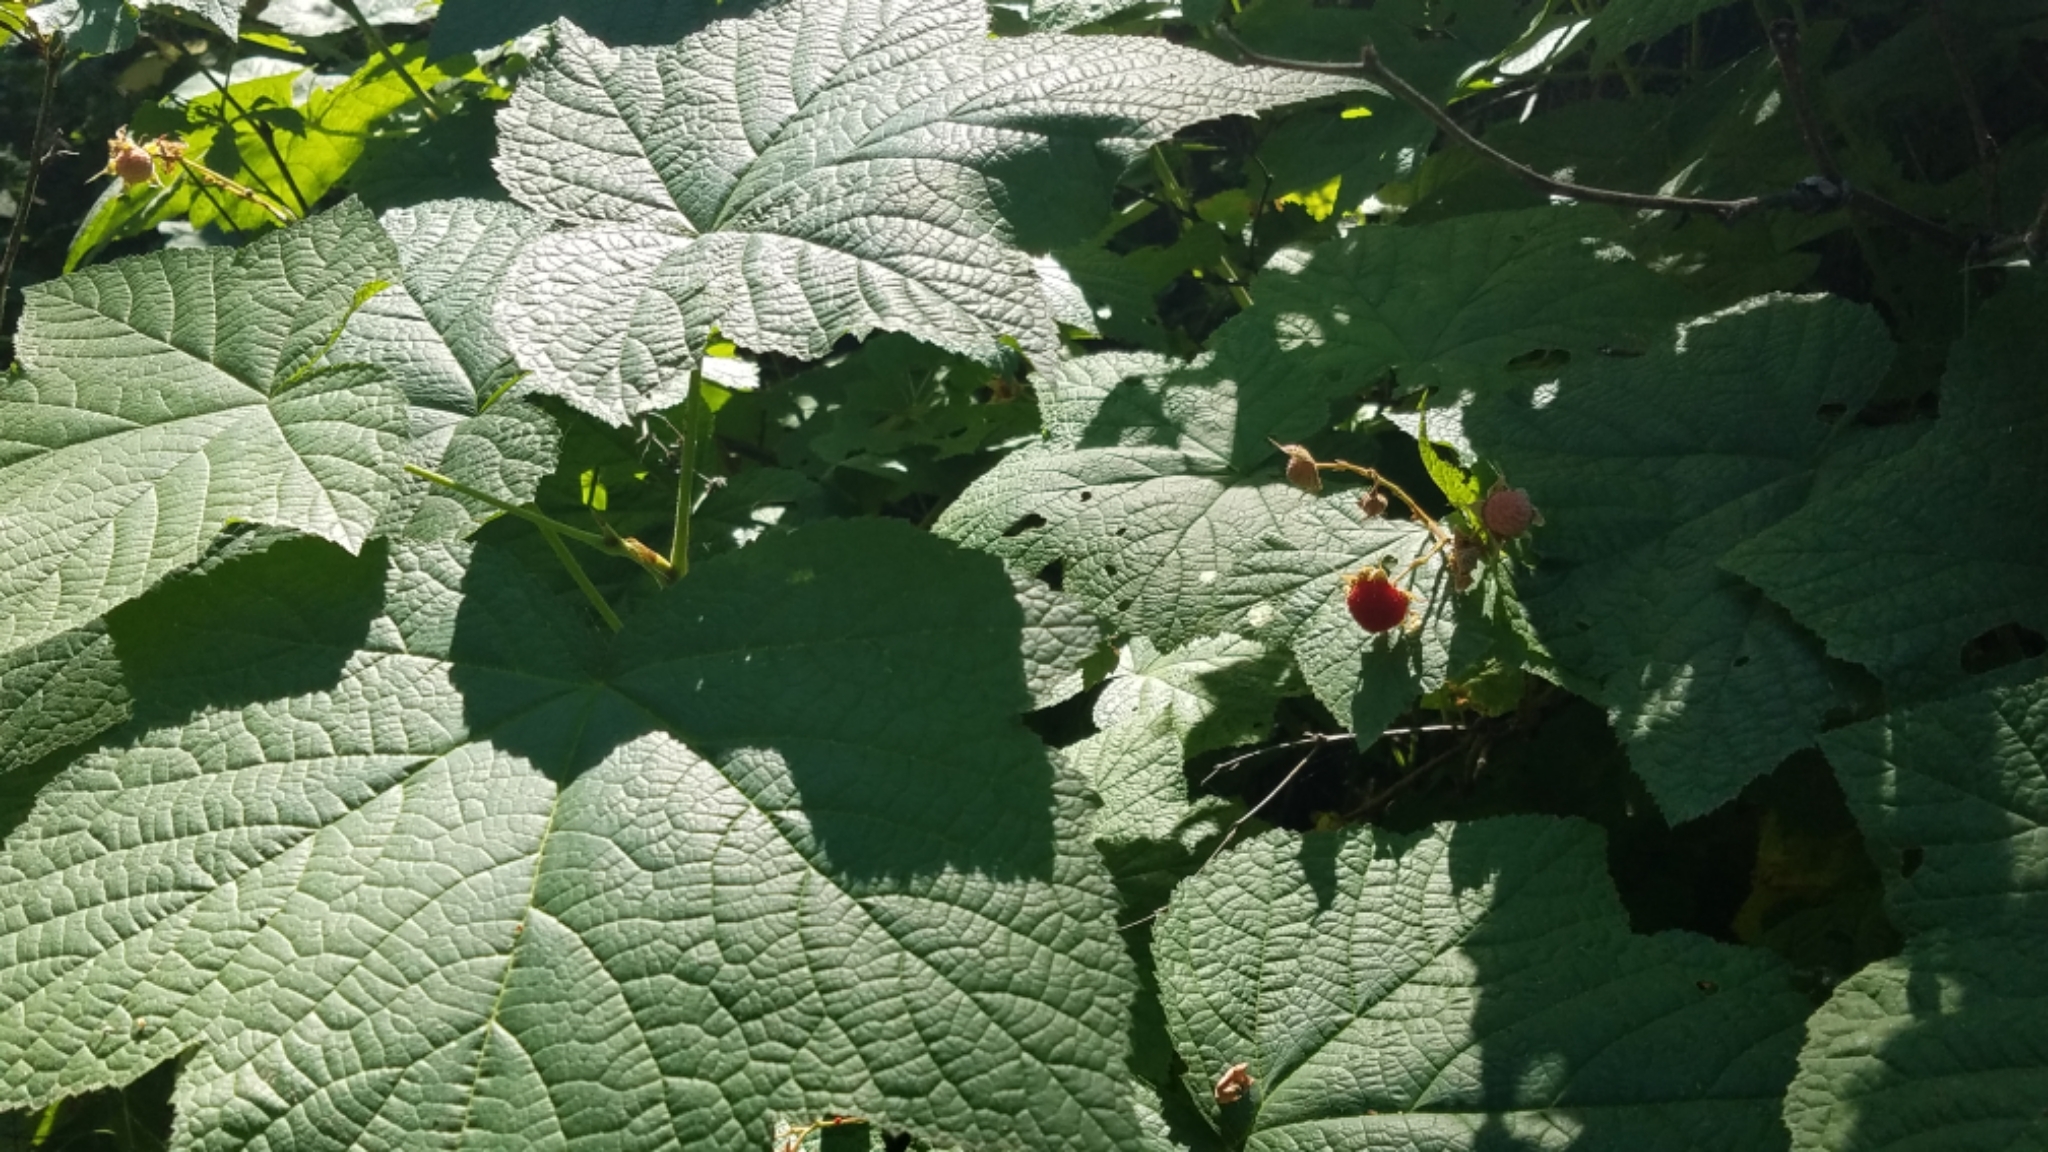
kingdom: Plantae
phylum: Tracheophyta
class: Magnoliopsida
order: Rosales
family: Rosaceae
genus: Rubus
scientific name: Rubus parviflorus
